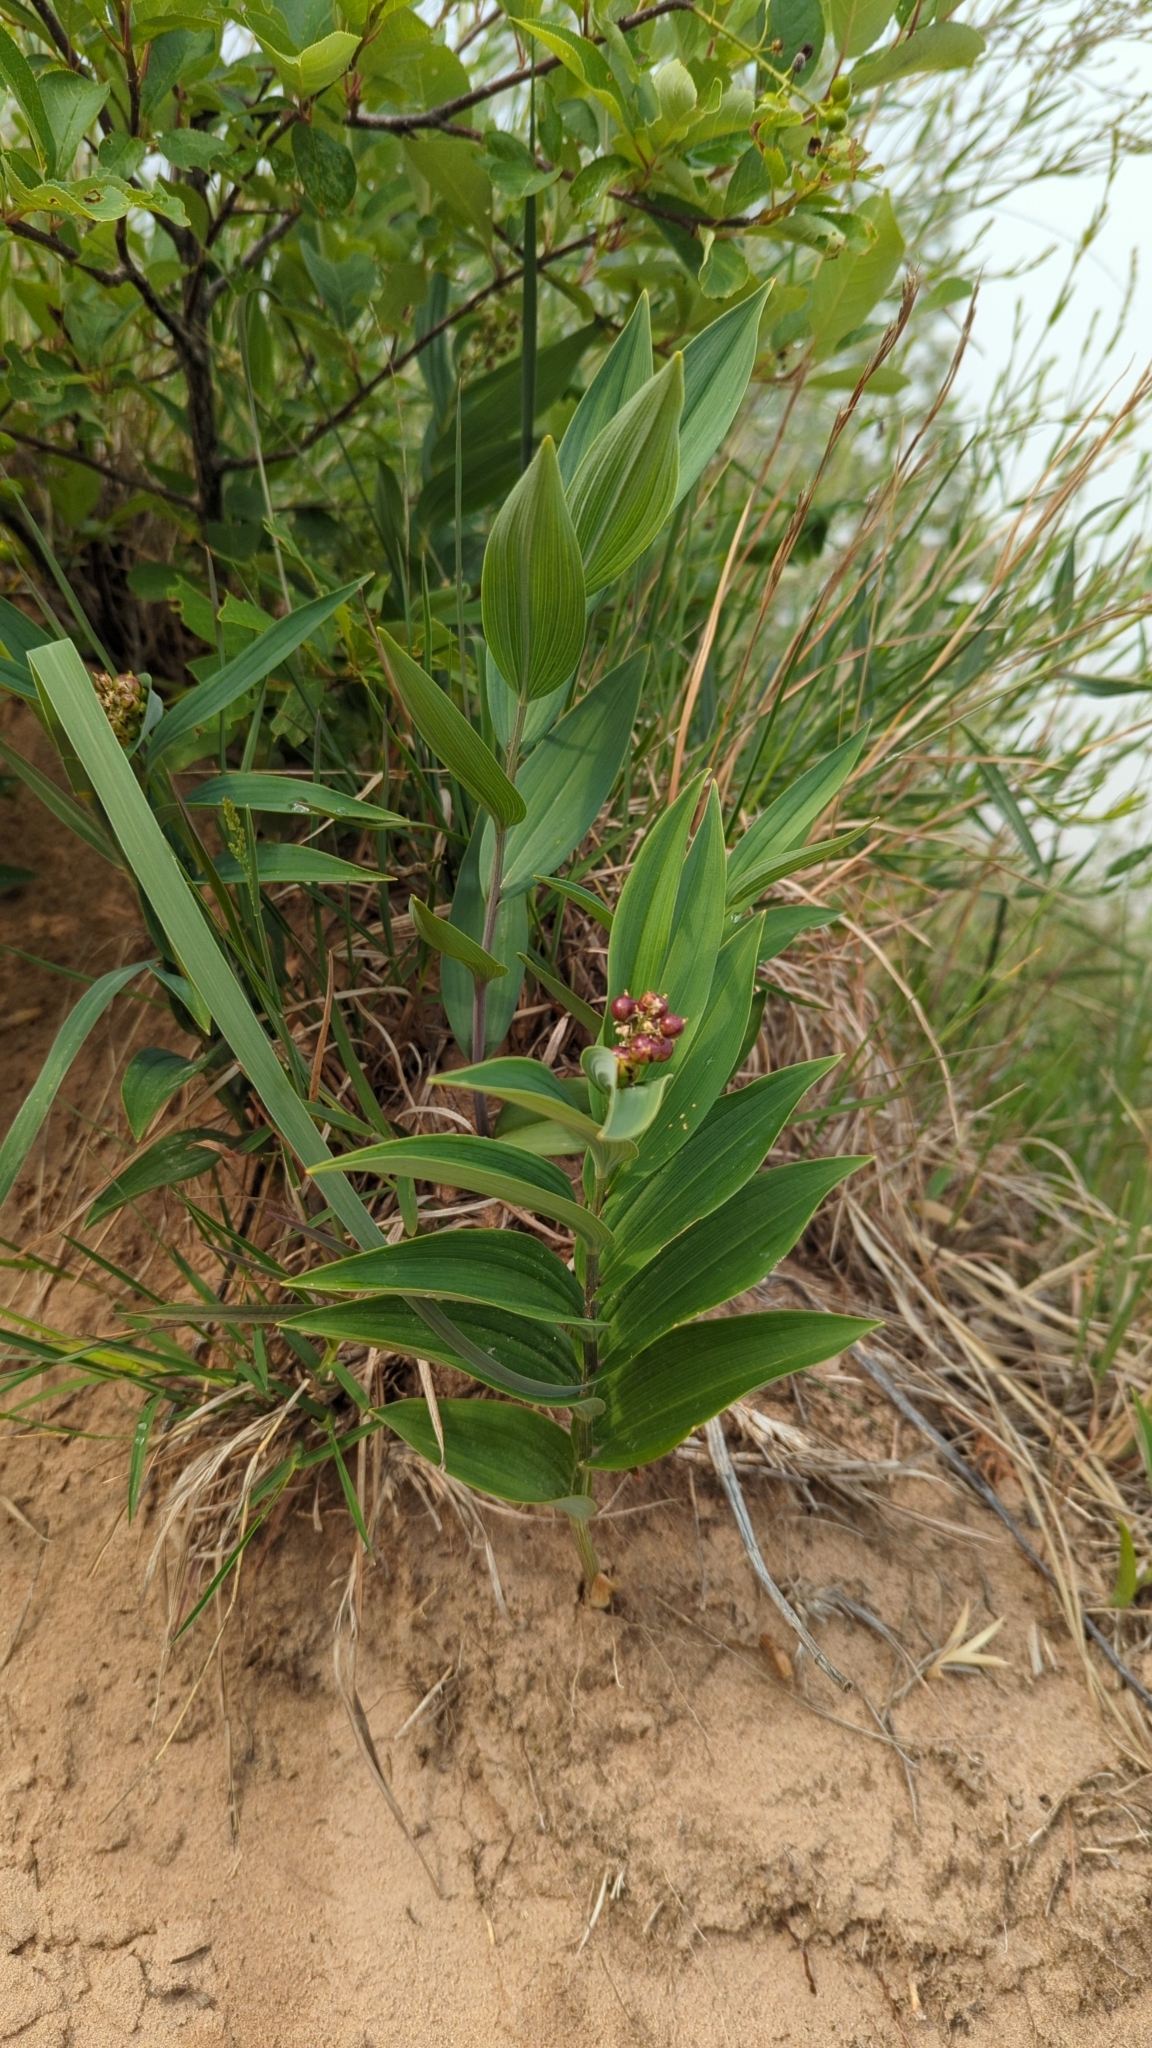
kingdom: Plantae
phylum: Tracheophyta
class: Liliopsida
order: Asparagales
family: Asparagaceae
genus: Maianthemum
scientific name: Maianthemum stellatum
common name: Little false solomon's seal
